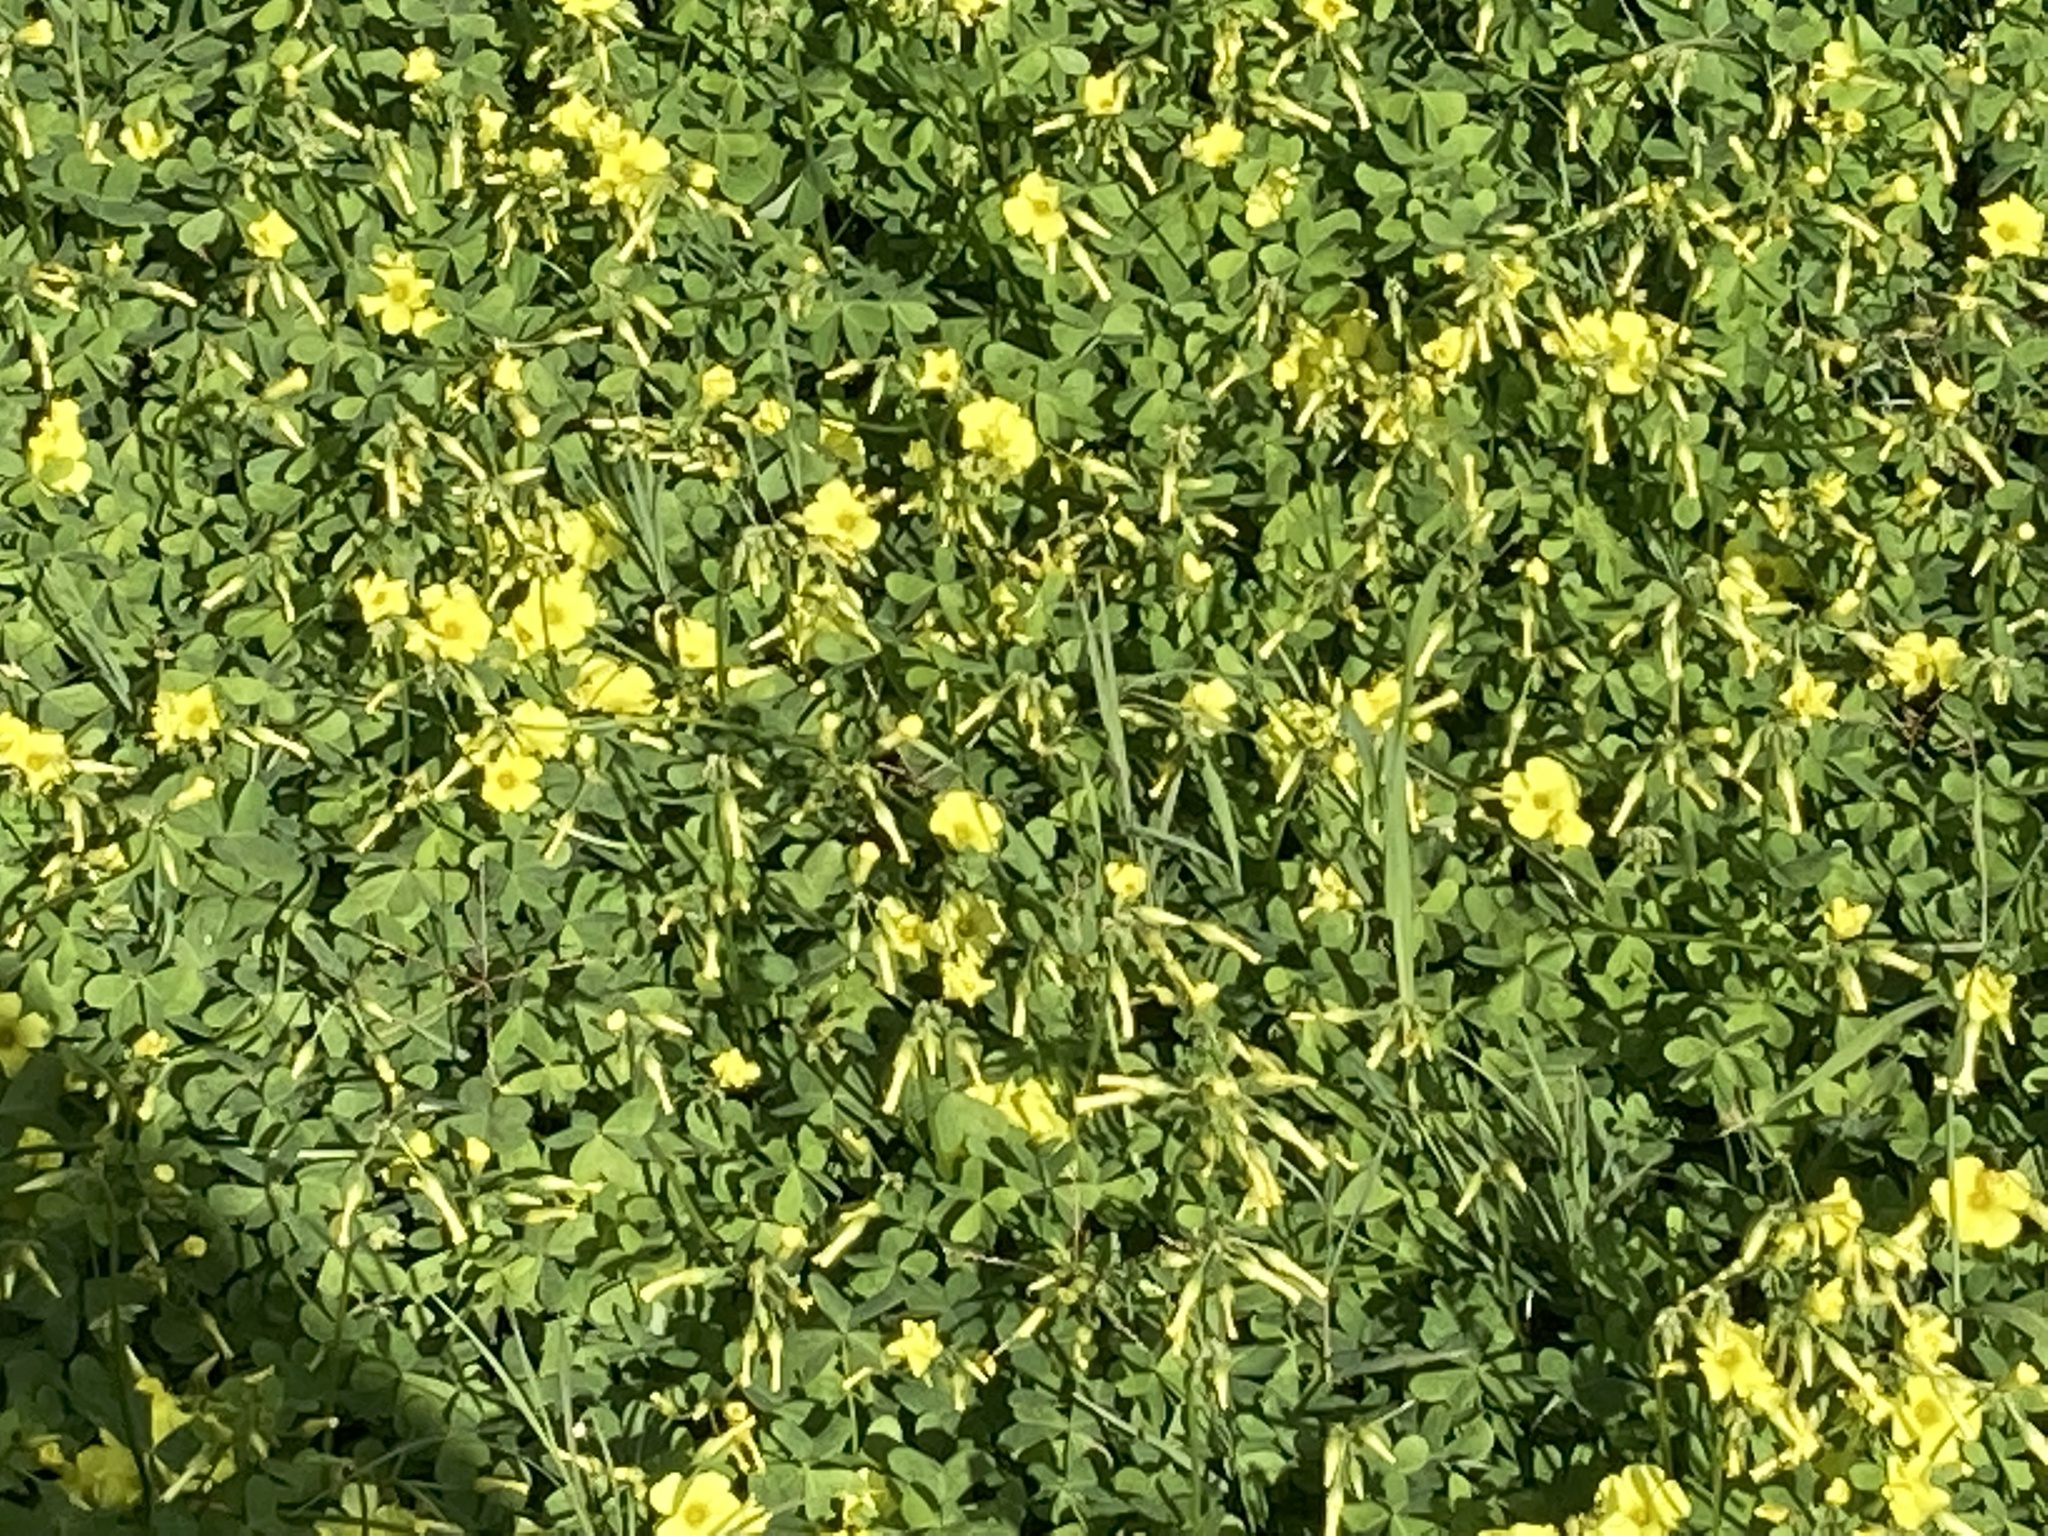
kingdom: Plantae
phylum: Tracheophyta
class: Magnoliopsida
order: Oxalidales
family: Oxalidaceae
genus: Oxalis
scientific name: Oxalis pes-caprae
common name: Bermuda-buttercup
